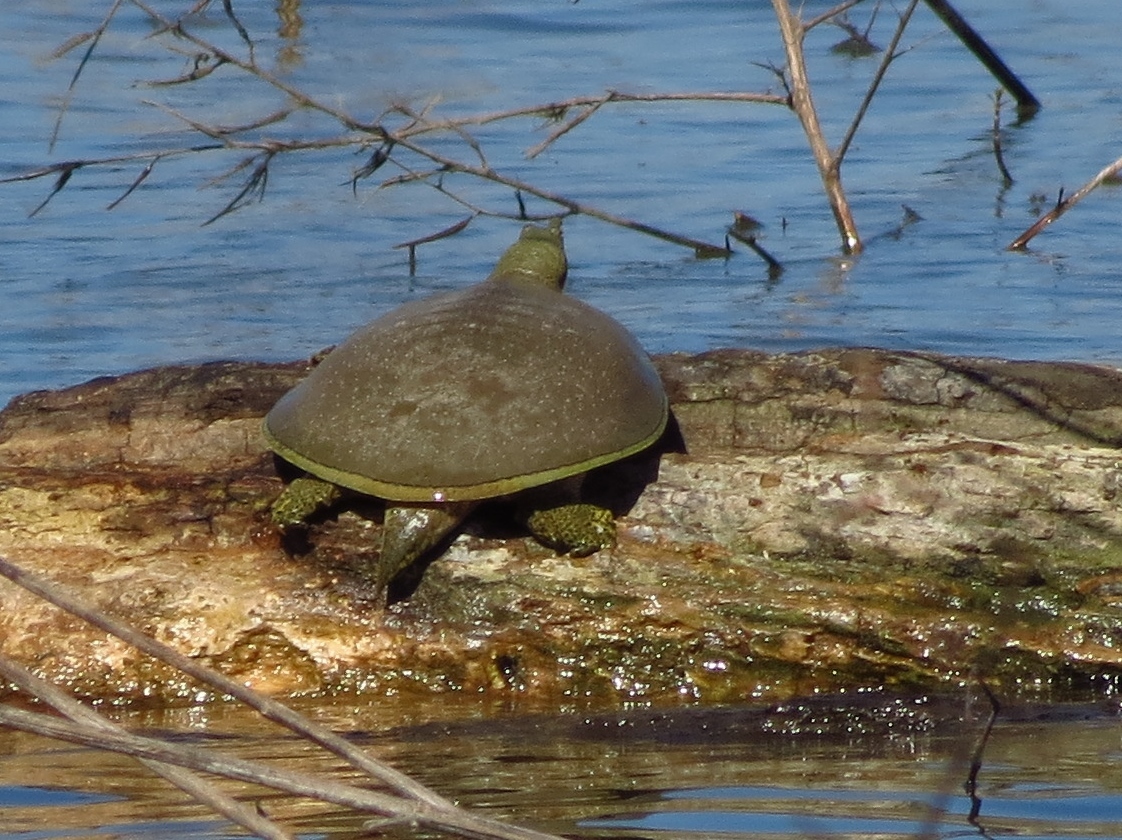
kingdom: Animalia
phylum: Chordata
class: Testudines
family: Trionychidae
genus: Apalone
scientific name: Apalone spinifera
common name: Spiny softshell turtle
